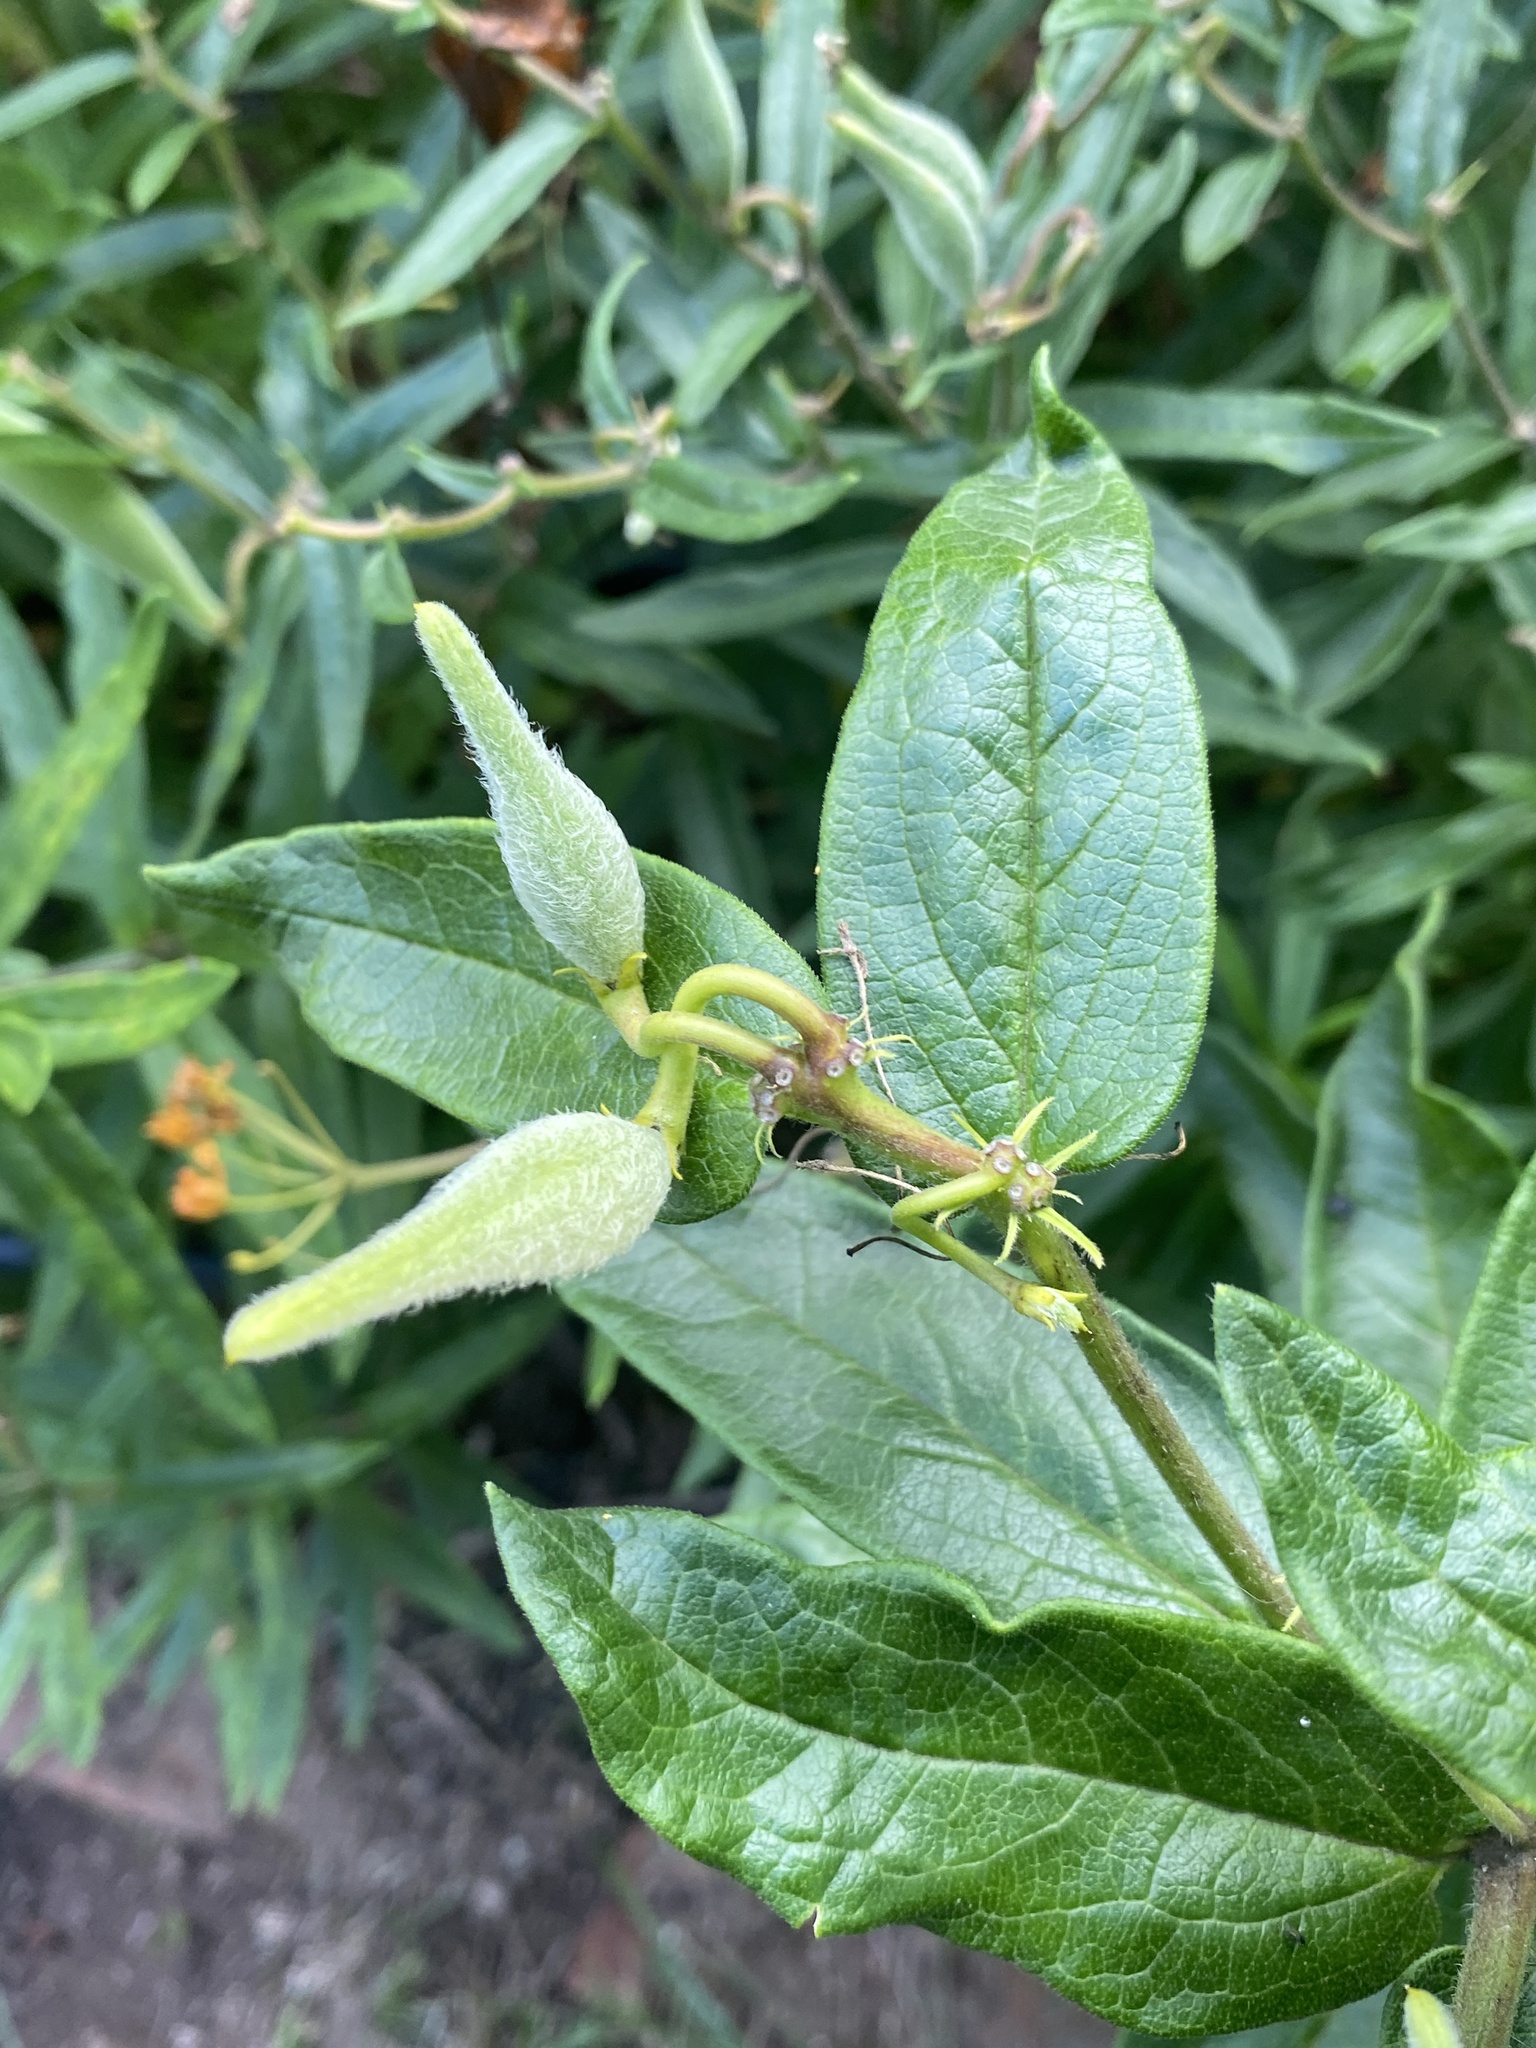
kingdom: Plantae
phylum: Tracheophyta
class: Magnoliopsida
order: Gentianales
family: Apocynaceae
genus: Asclepias
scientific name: Asclepias tuberosa
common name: Butterfly milkweed
